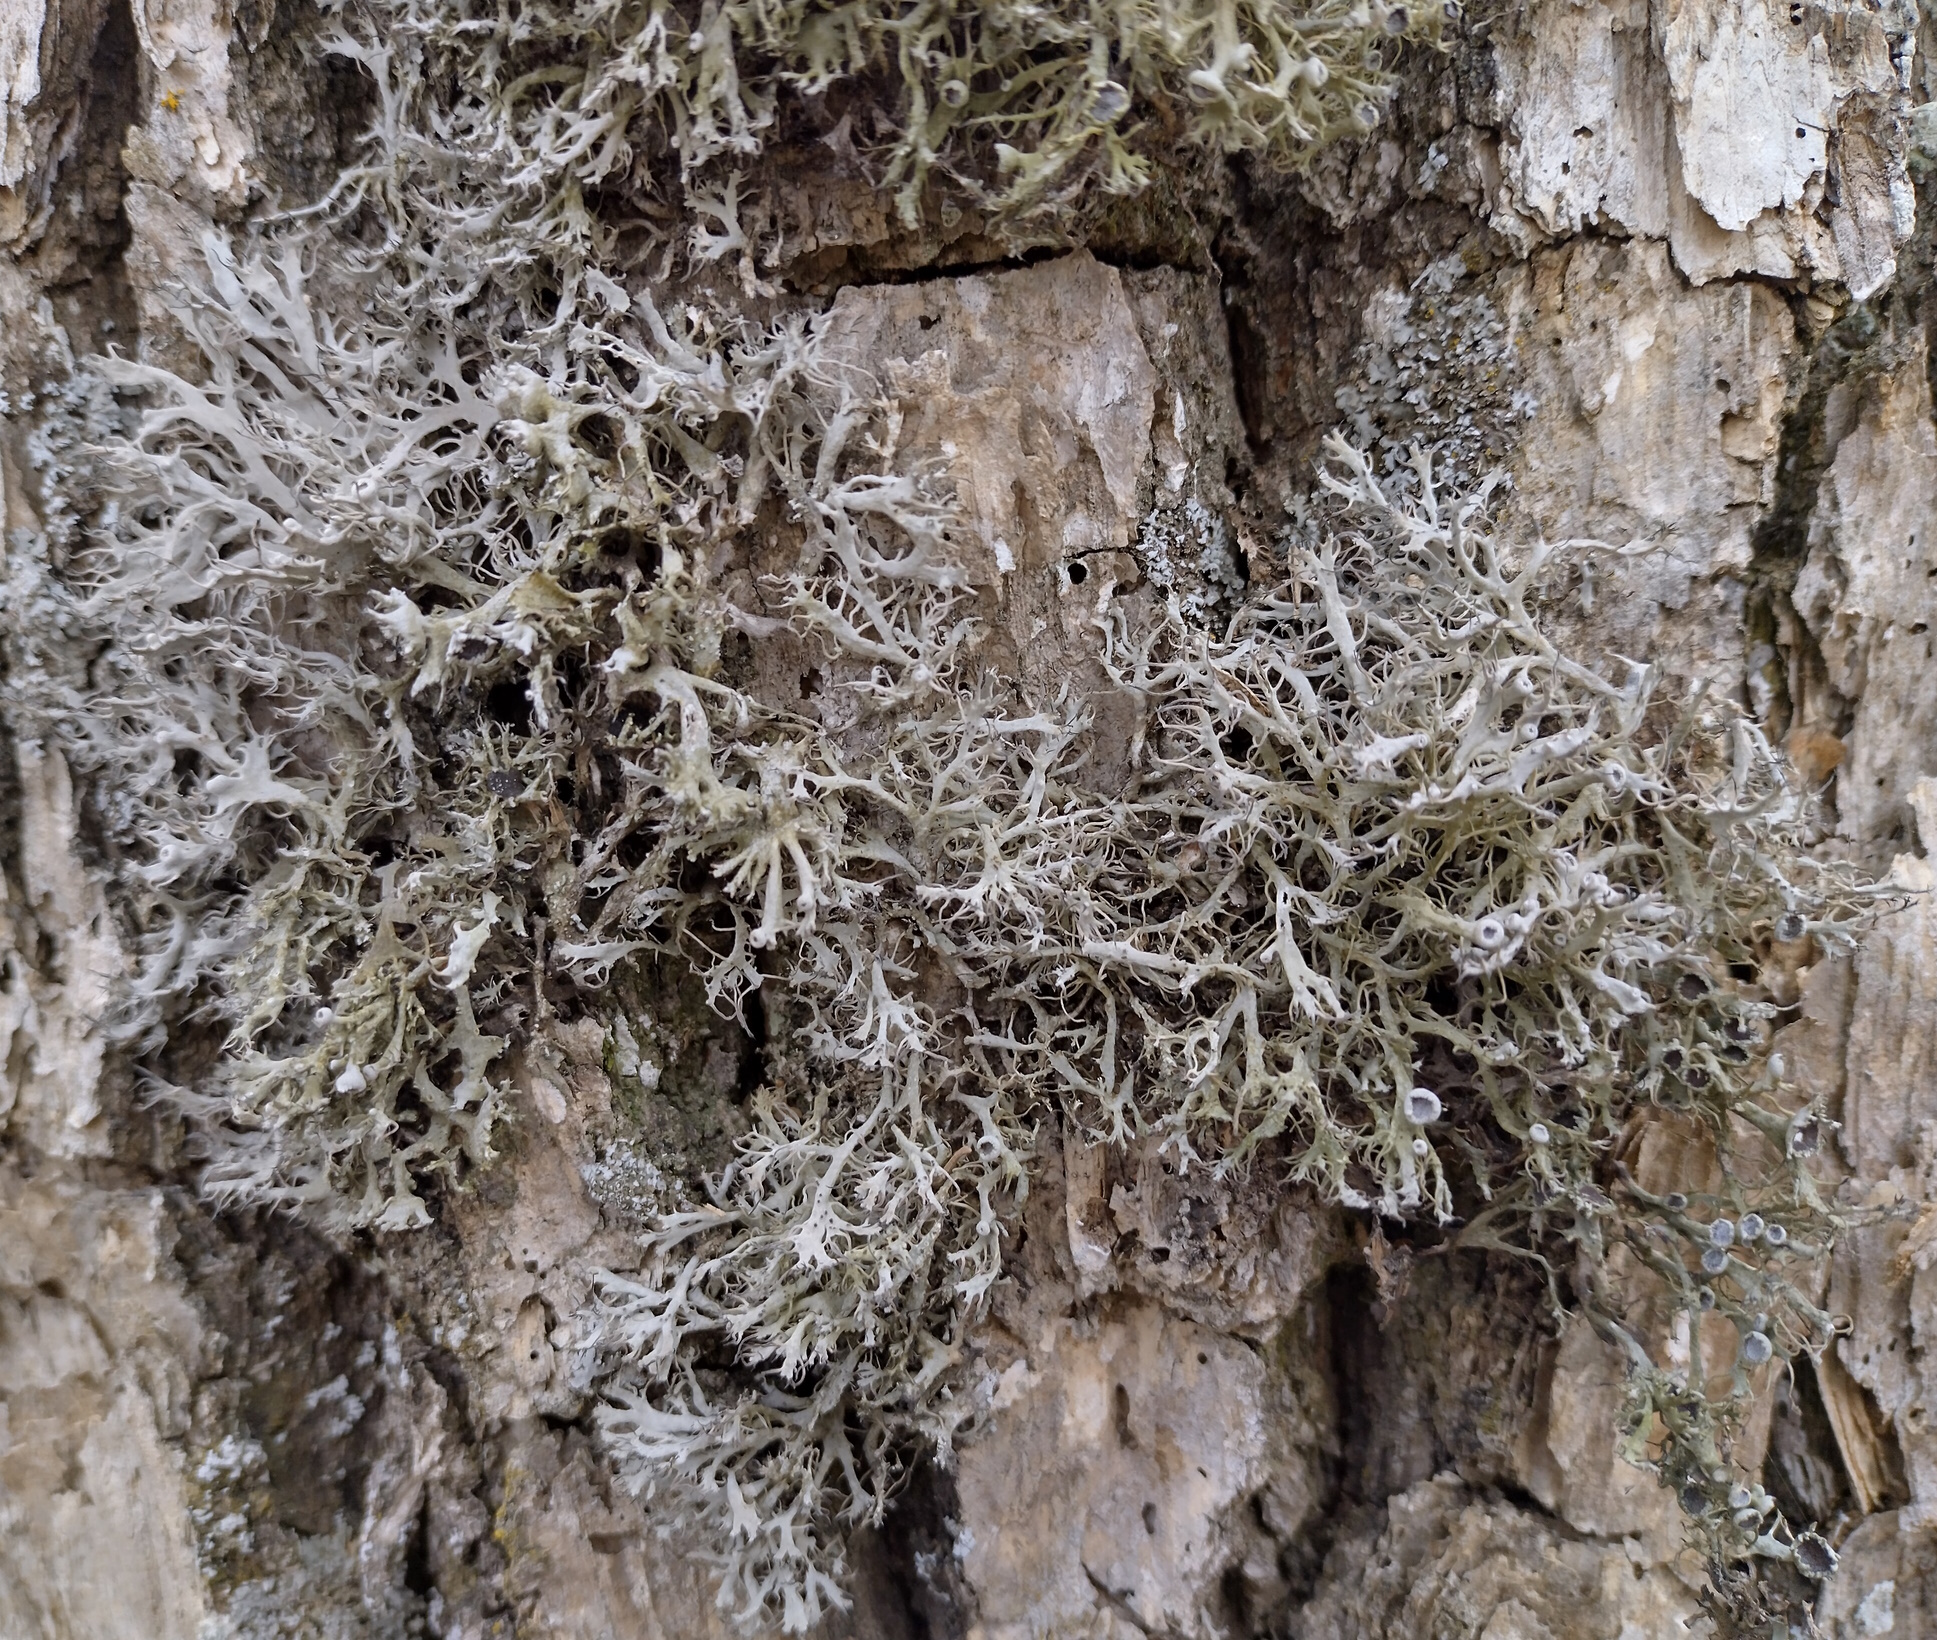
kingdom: Fungi
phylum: Ascomycota
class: Lecanoromycetes
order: Caliciales
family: Physciaceae
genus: Anaptychia
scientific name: Anaptychia ciliaris
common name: Great ciliated lichen
